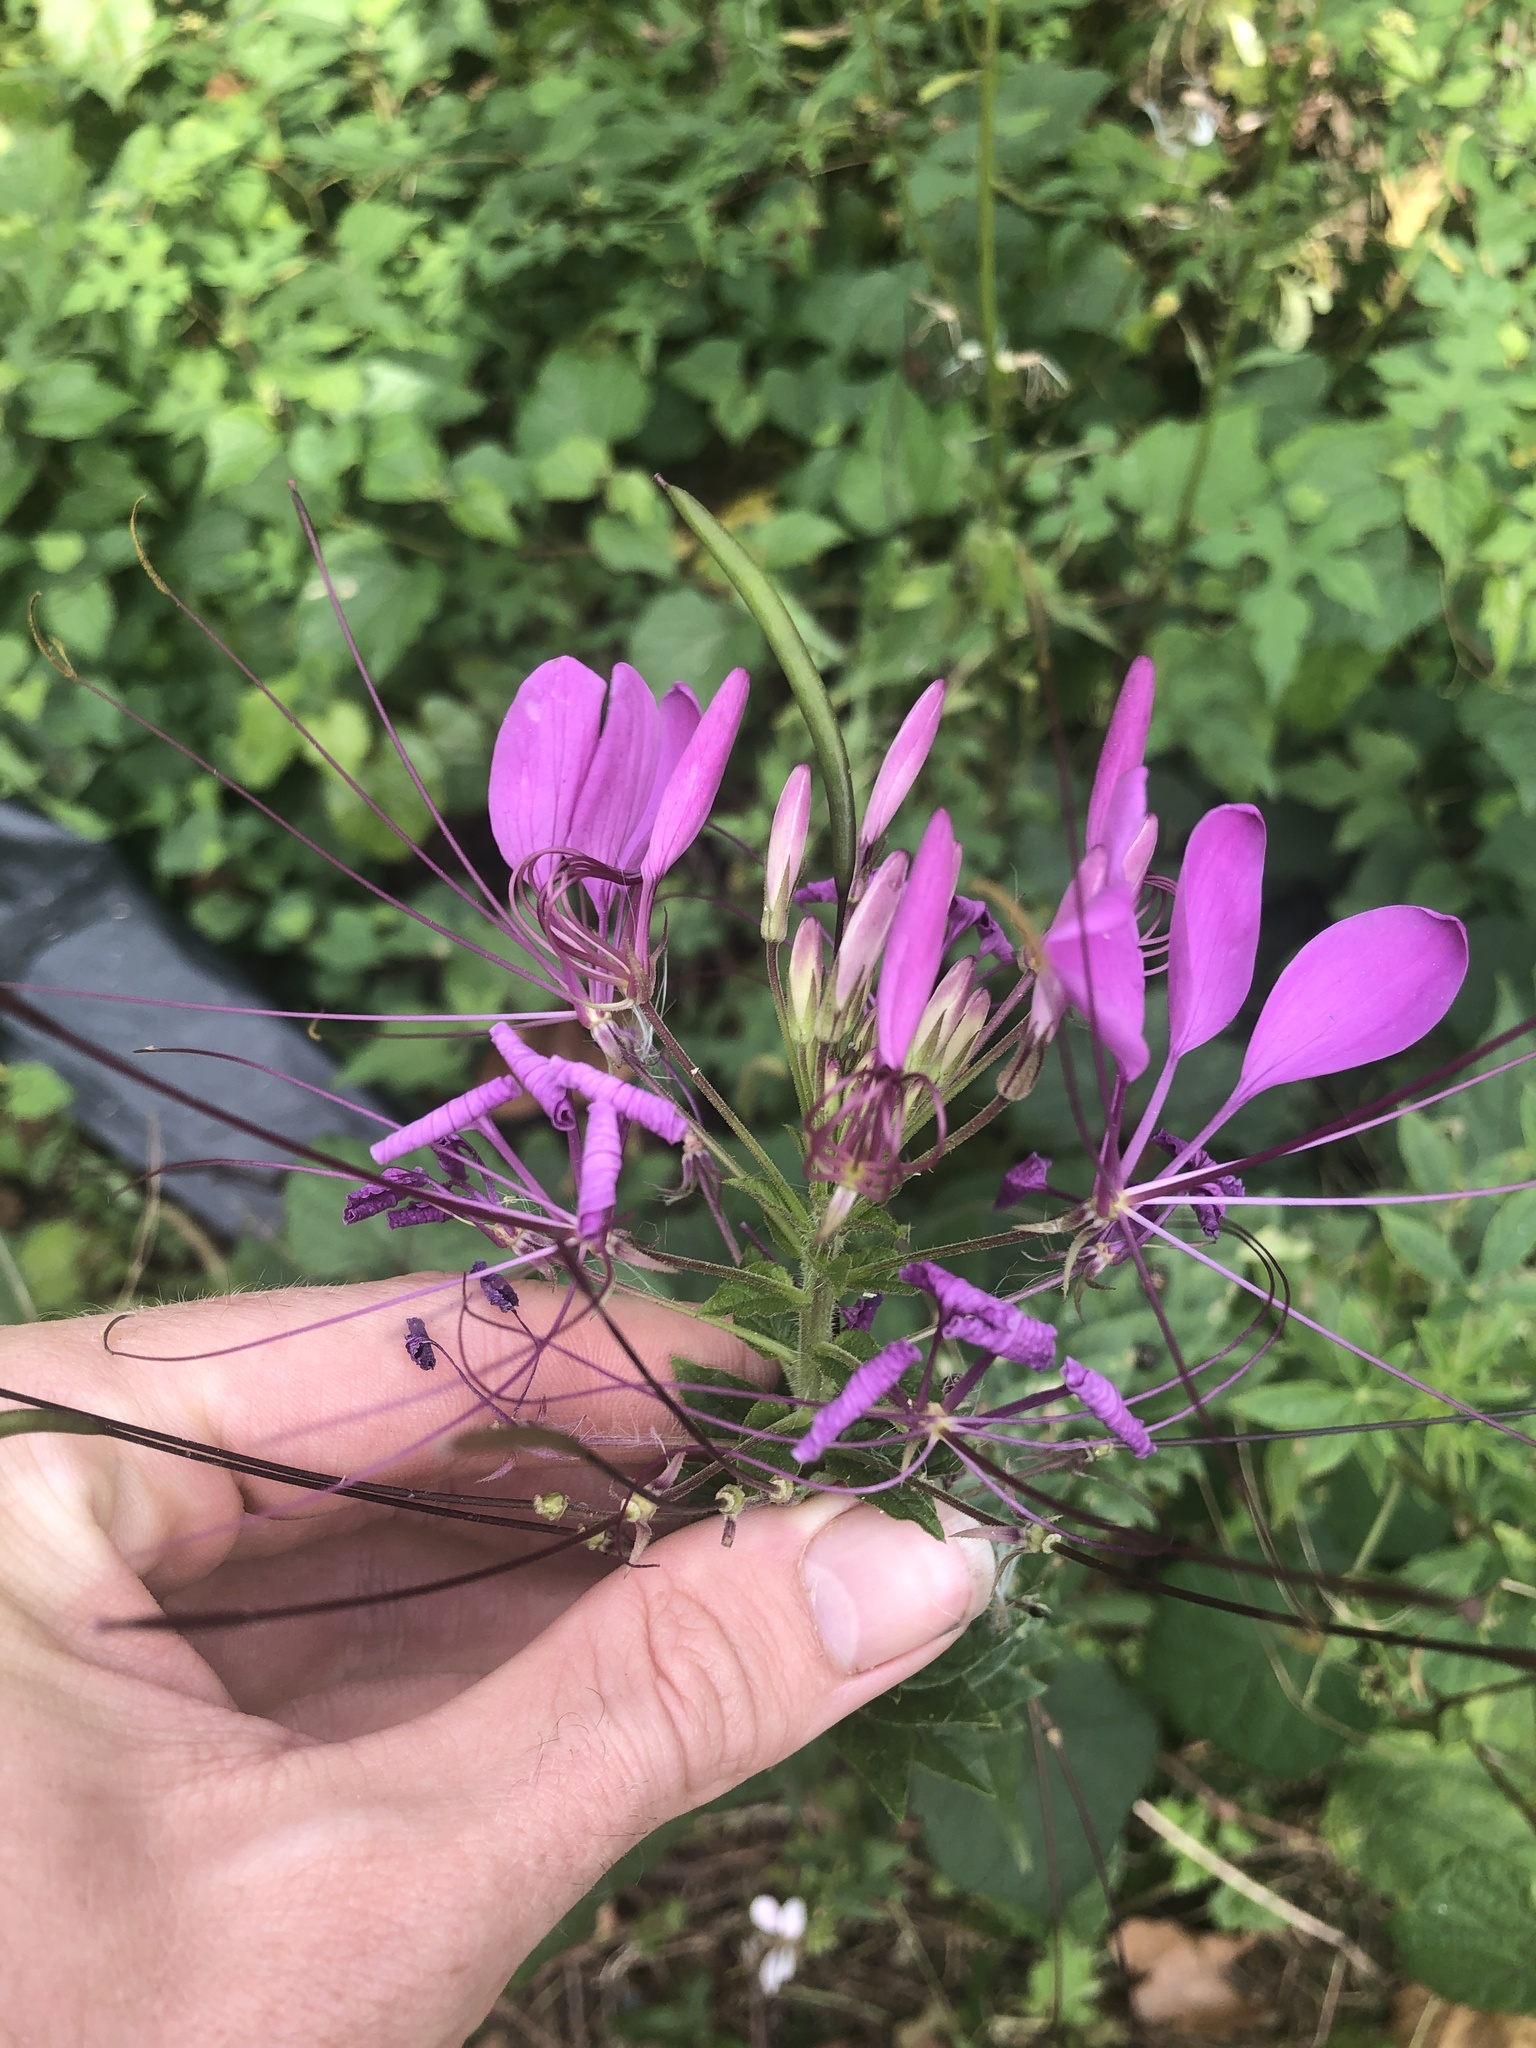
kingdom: Plantae
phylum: Tracheophyta
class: Magnoliopsida
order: Brassicales
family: Cleomaceae
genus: Tarenaya
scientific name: Tarenaya houtteana
